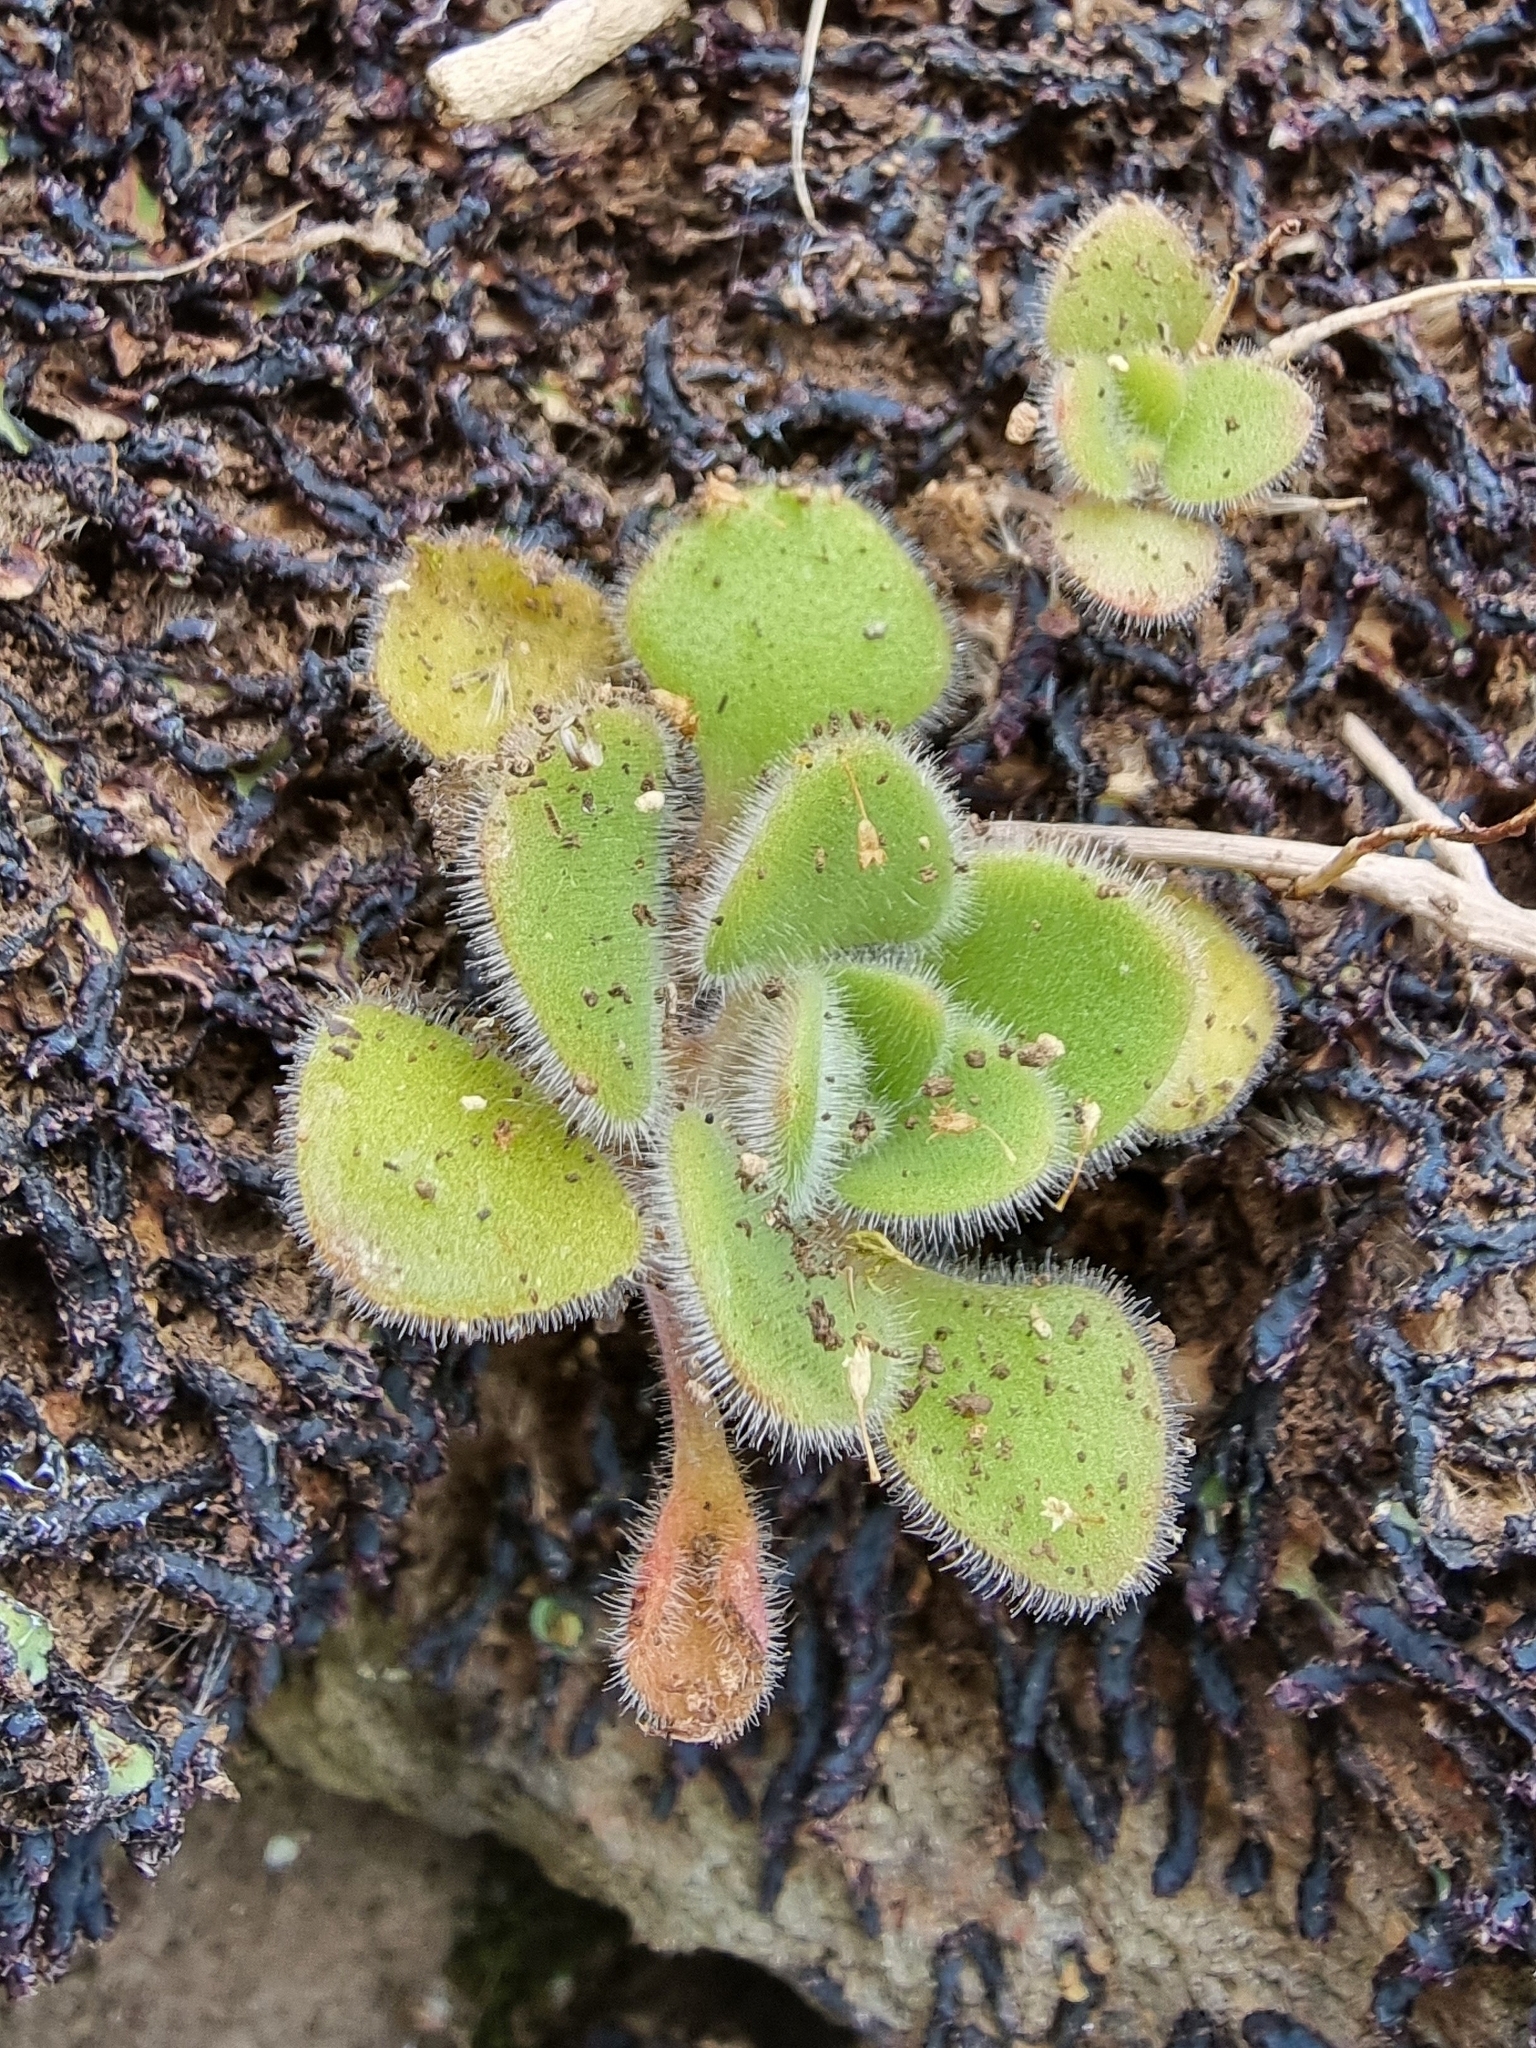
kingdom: Plantae
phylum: Tracheophyta
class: Magnoliopsida
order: Saxifragales
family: Crassulaceae
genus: Aichryson
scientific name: Aichryson villosum
